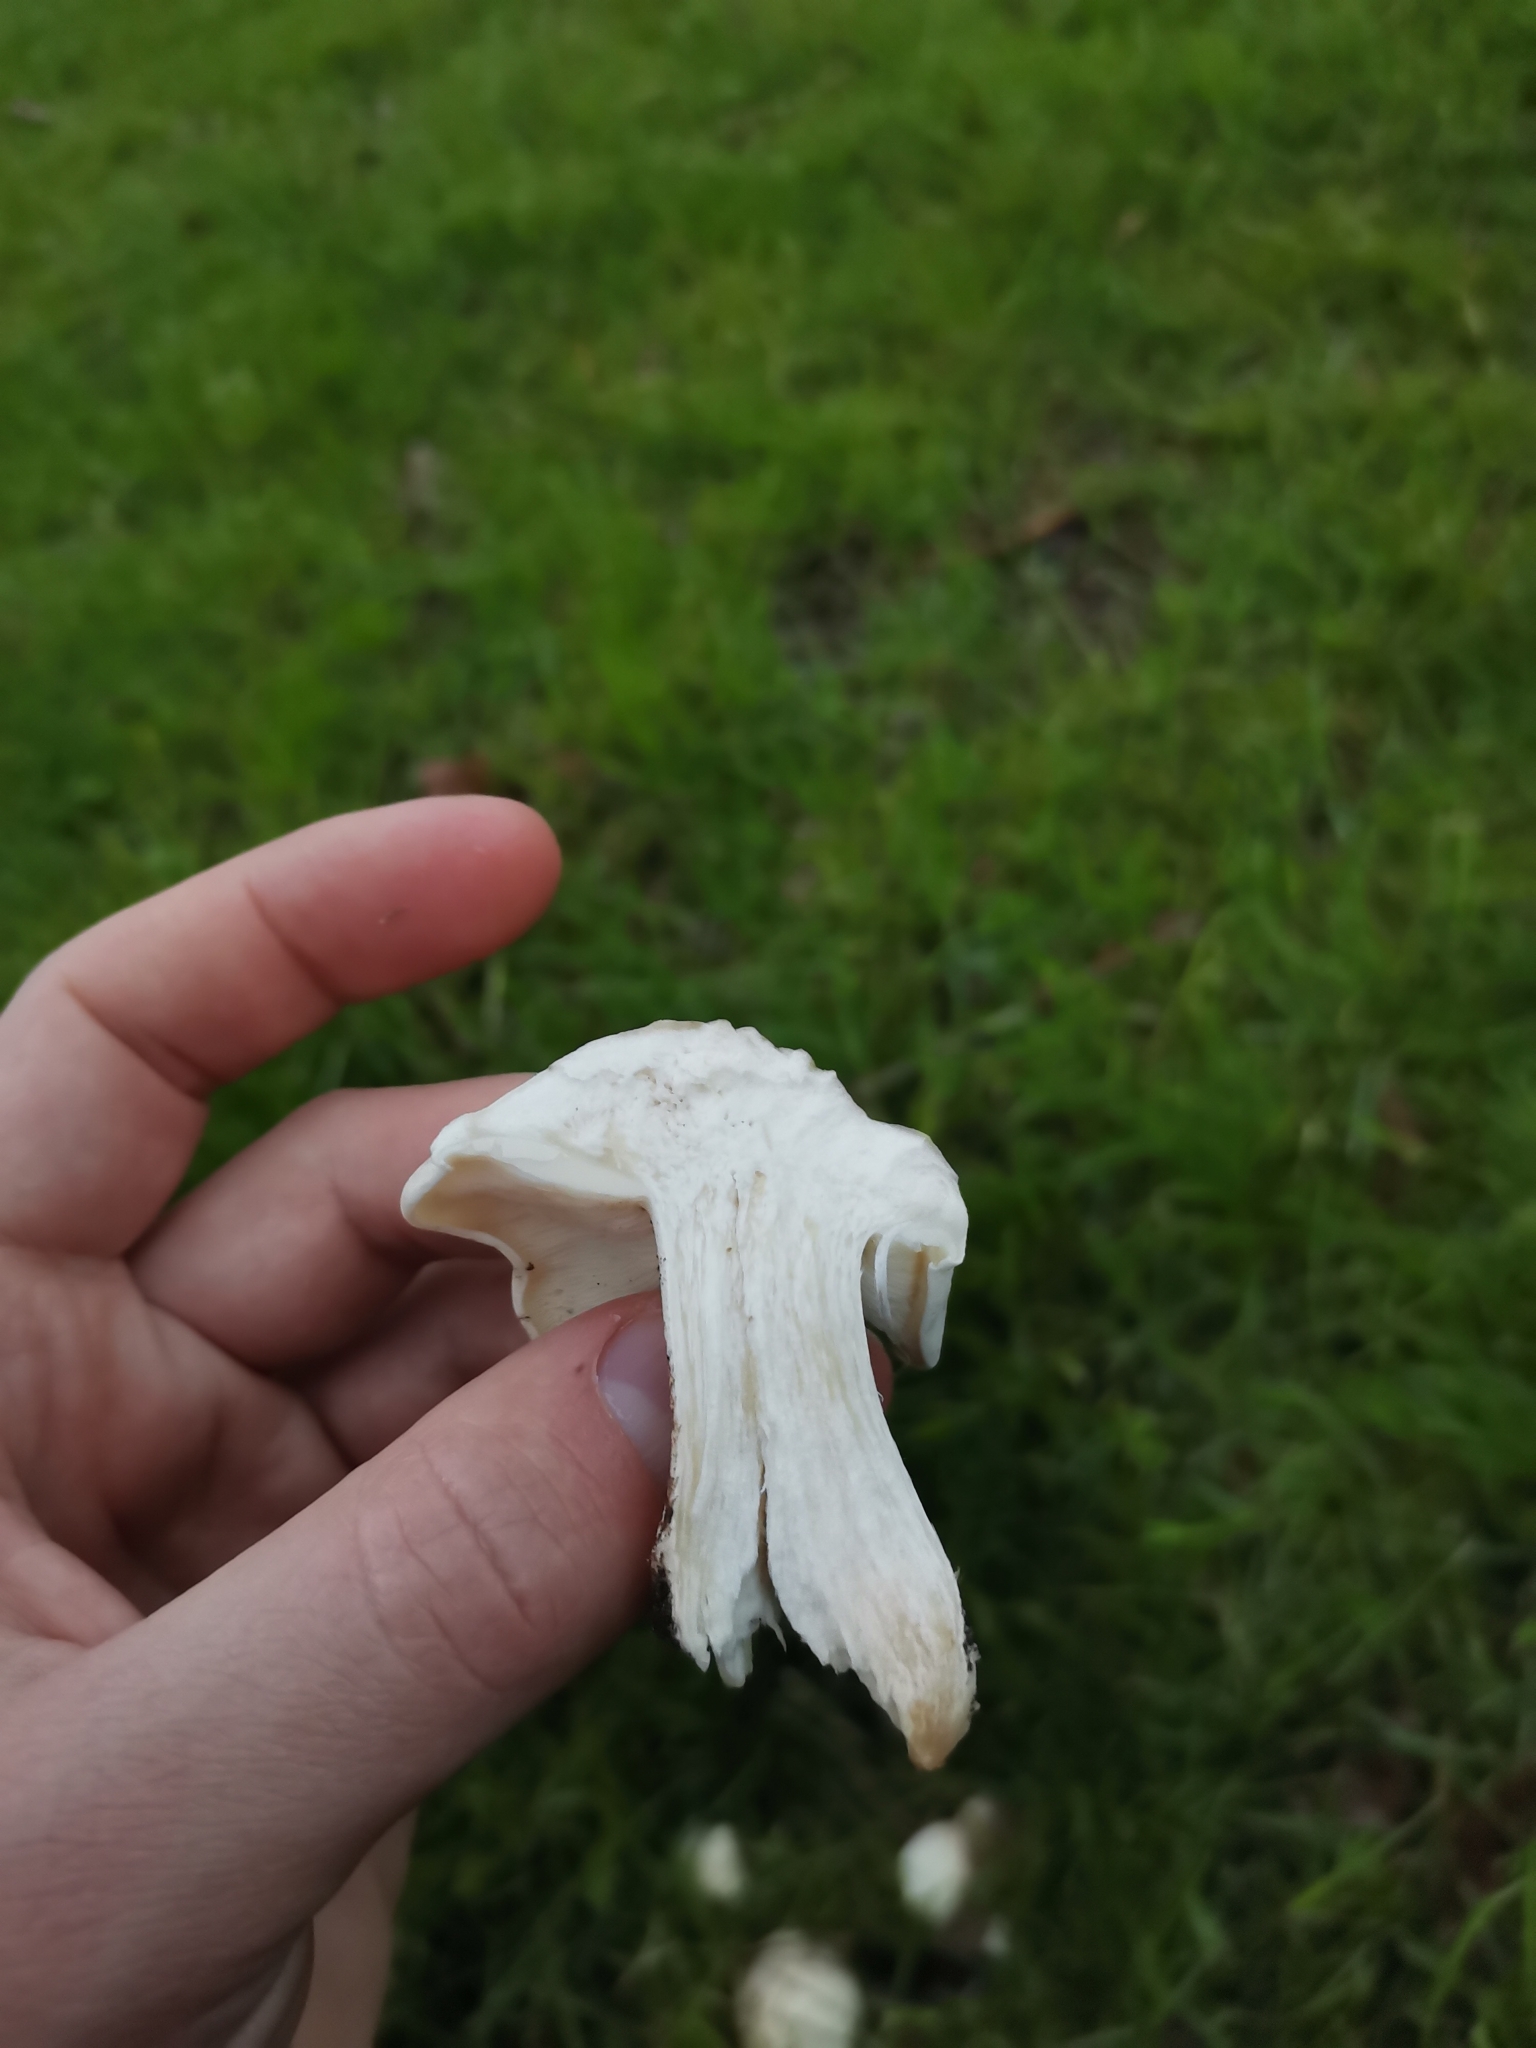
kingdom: Fungi
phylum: Basidiomycota
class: Agaricomycetes
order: Agaricales
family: Lyophyllaceae
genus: Calocybe
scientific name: Calocybe gambosa
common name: St. george's mushroom
